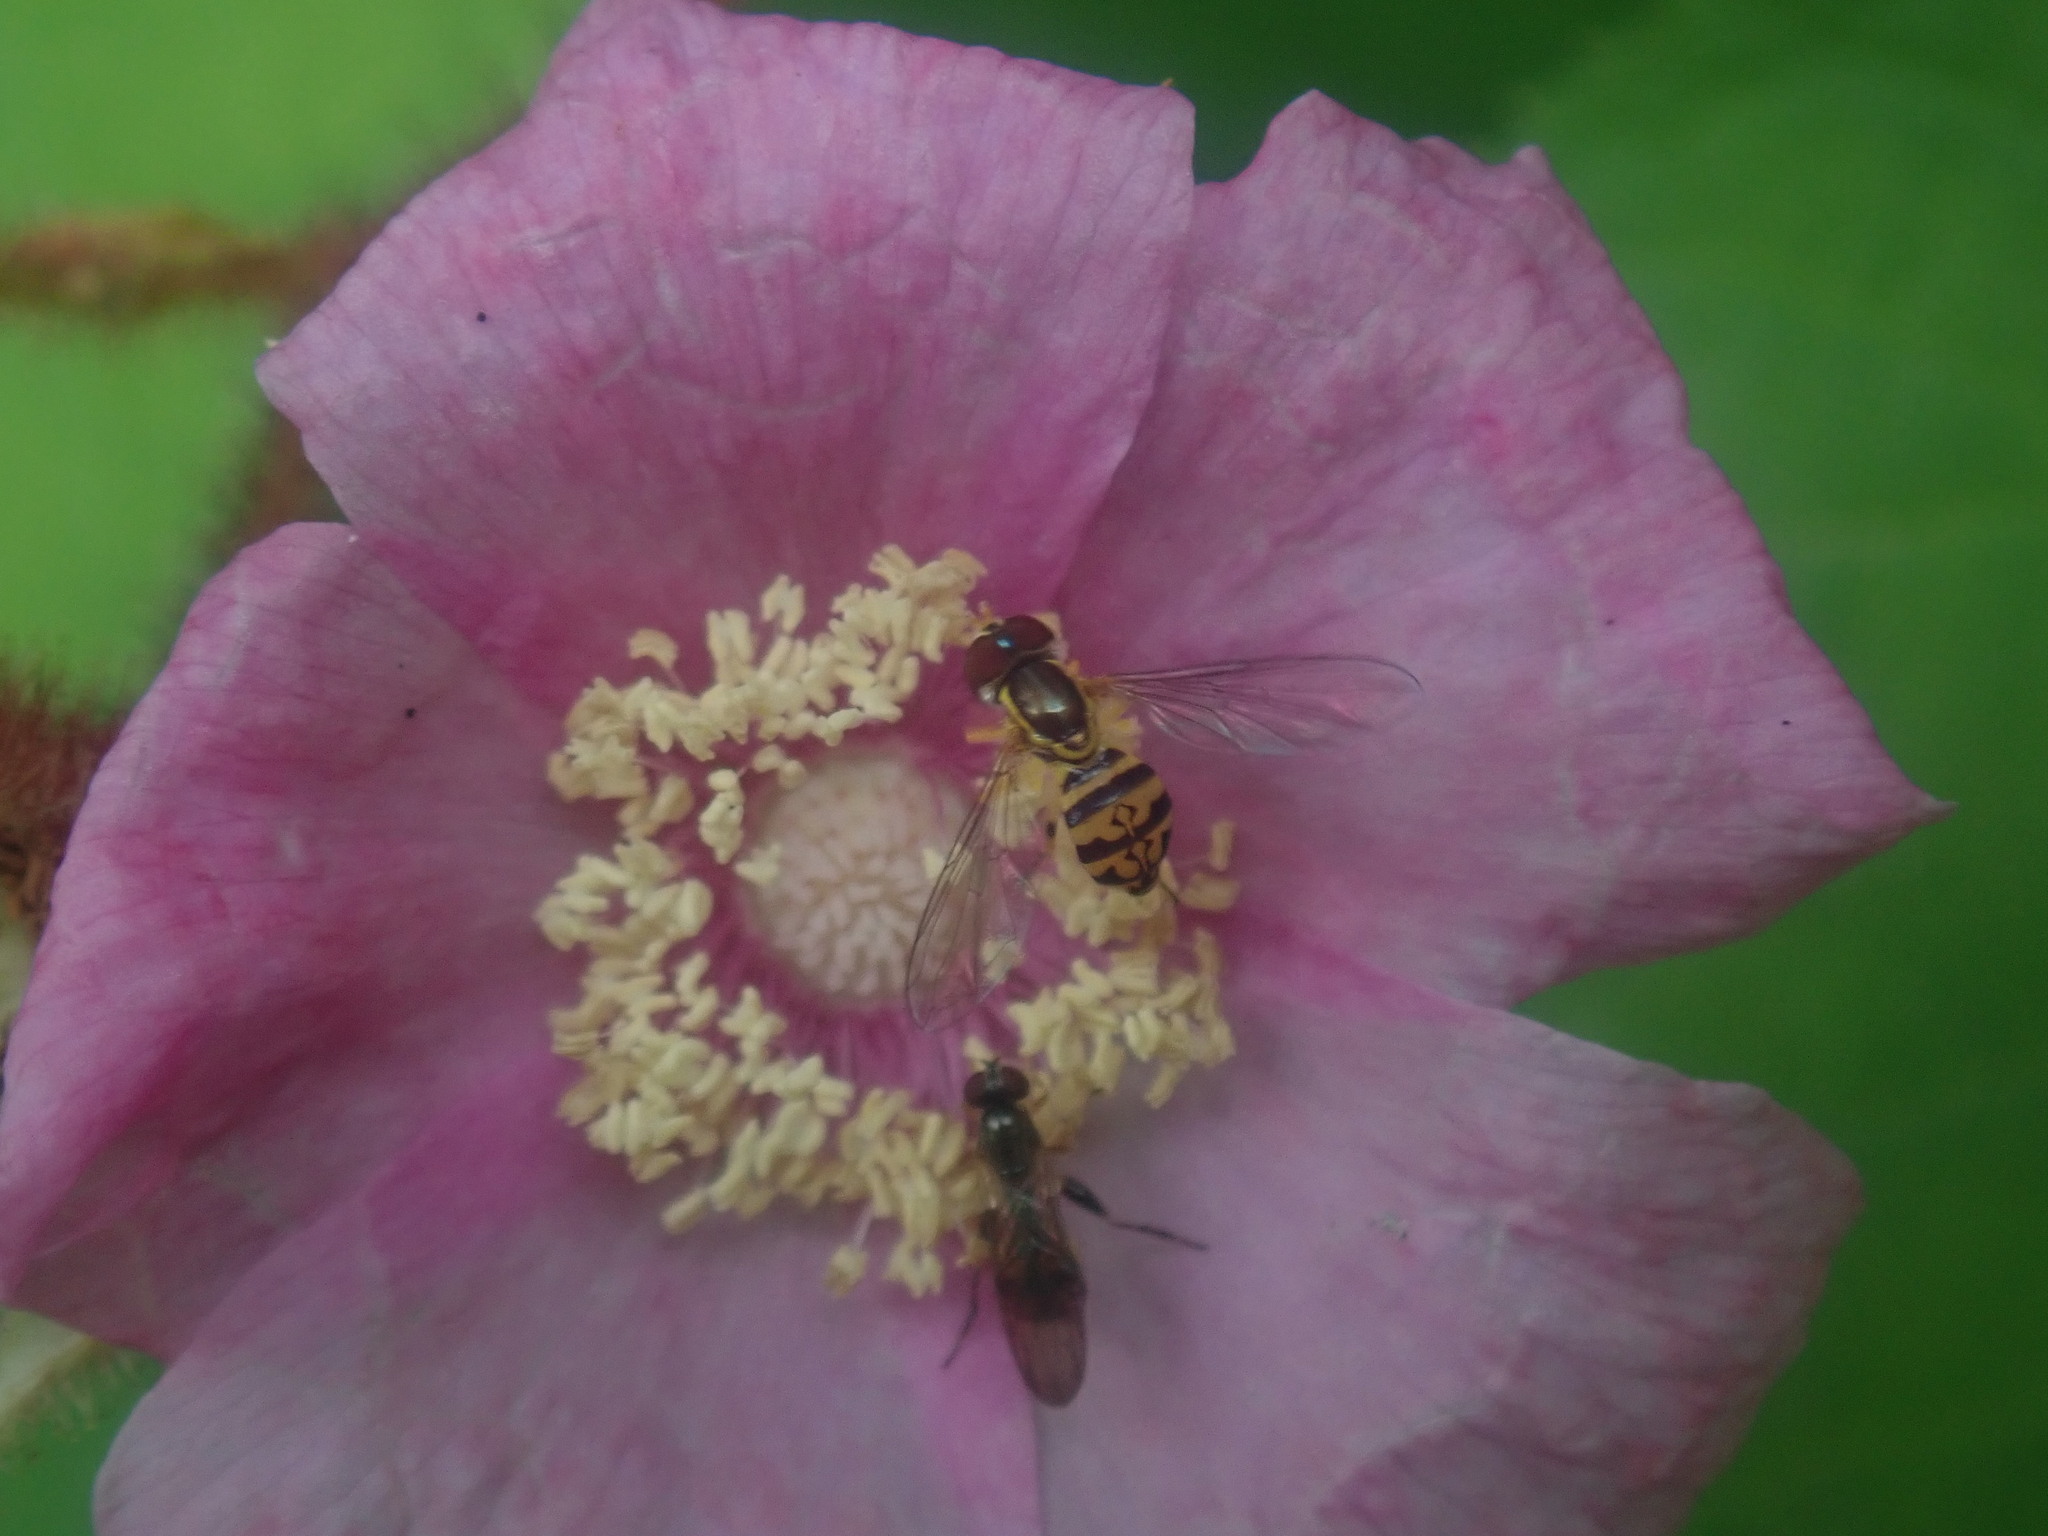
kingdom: Animalia
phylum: Arthropoda
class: Insecta
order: Diptera
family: Syrphidae
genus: Toxomerus
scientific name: Toxomerus geminatus
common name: Eastern calligrapher
